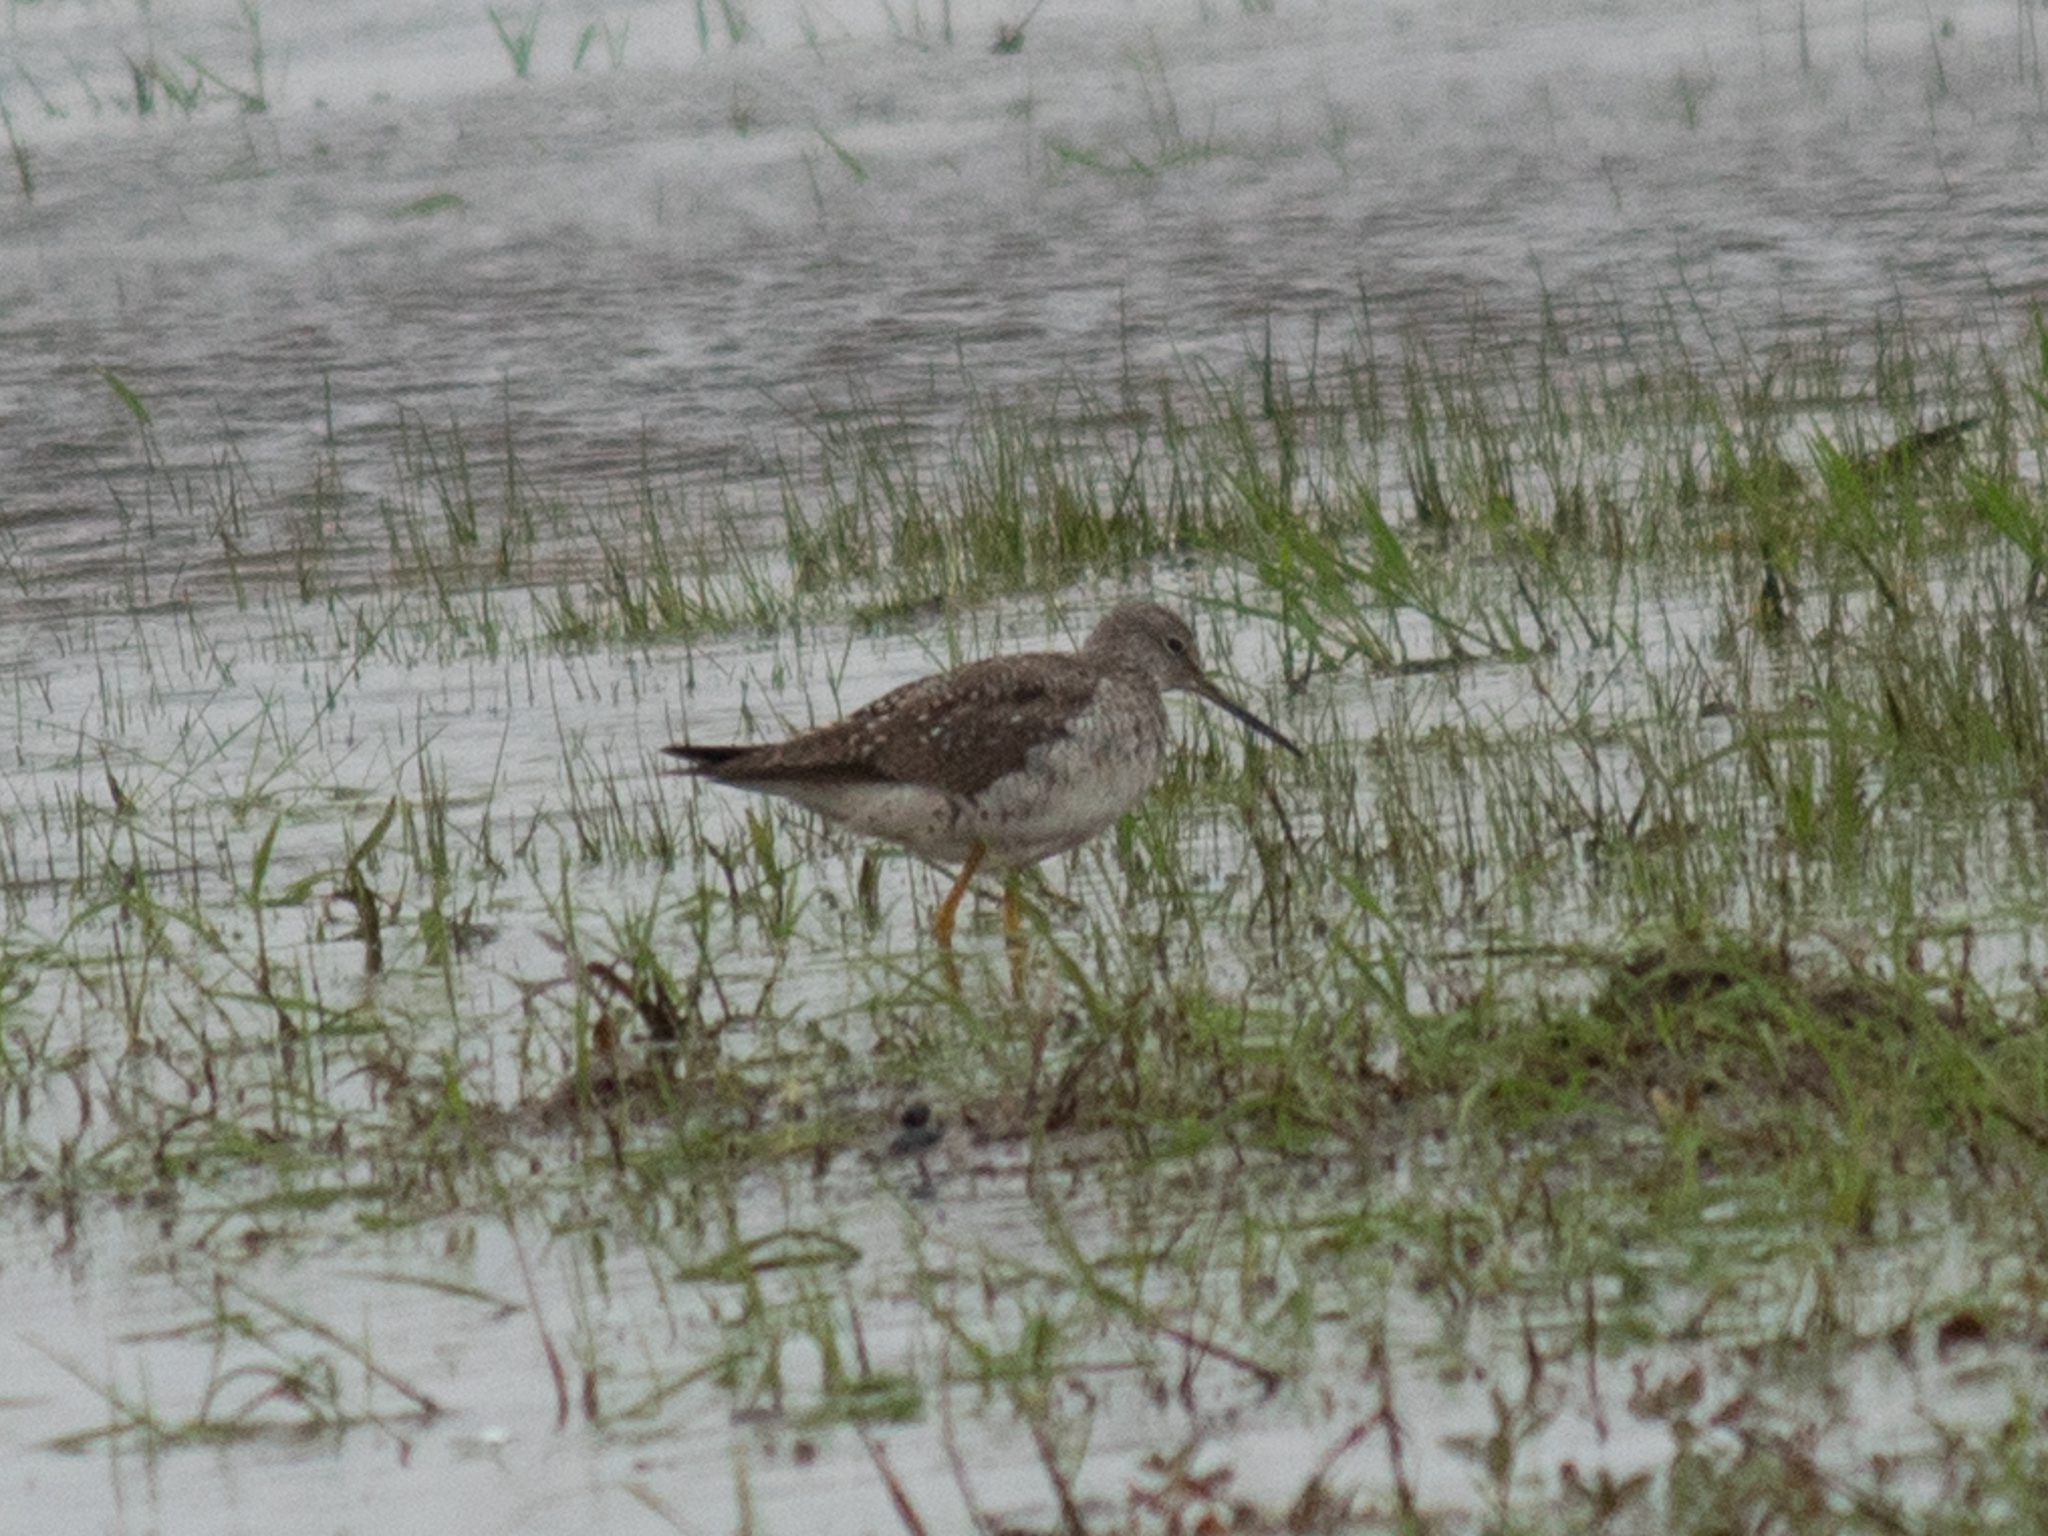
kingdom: Animalia
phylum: Chordata
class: Aves
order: Charadriiformes
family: Scolopacidae
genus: Tringa
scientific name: Tringa melanoleuca
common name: Greater yellowlegs
